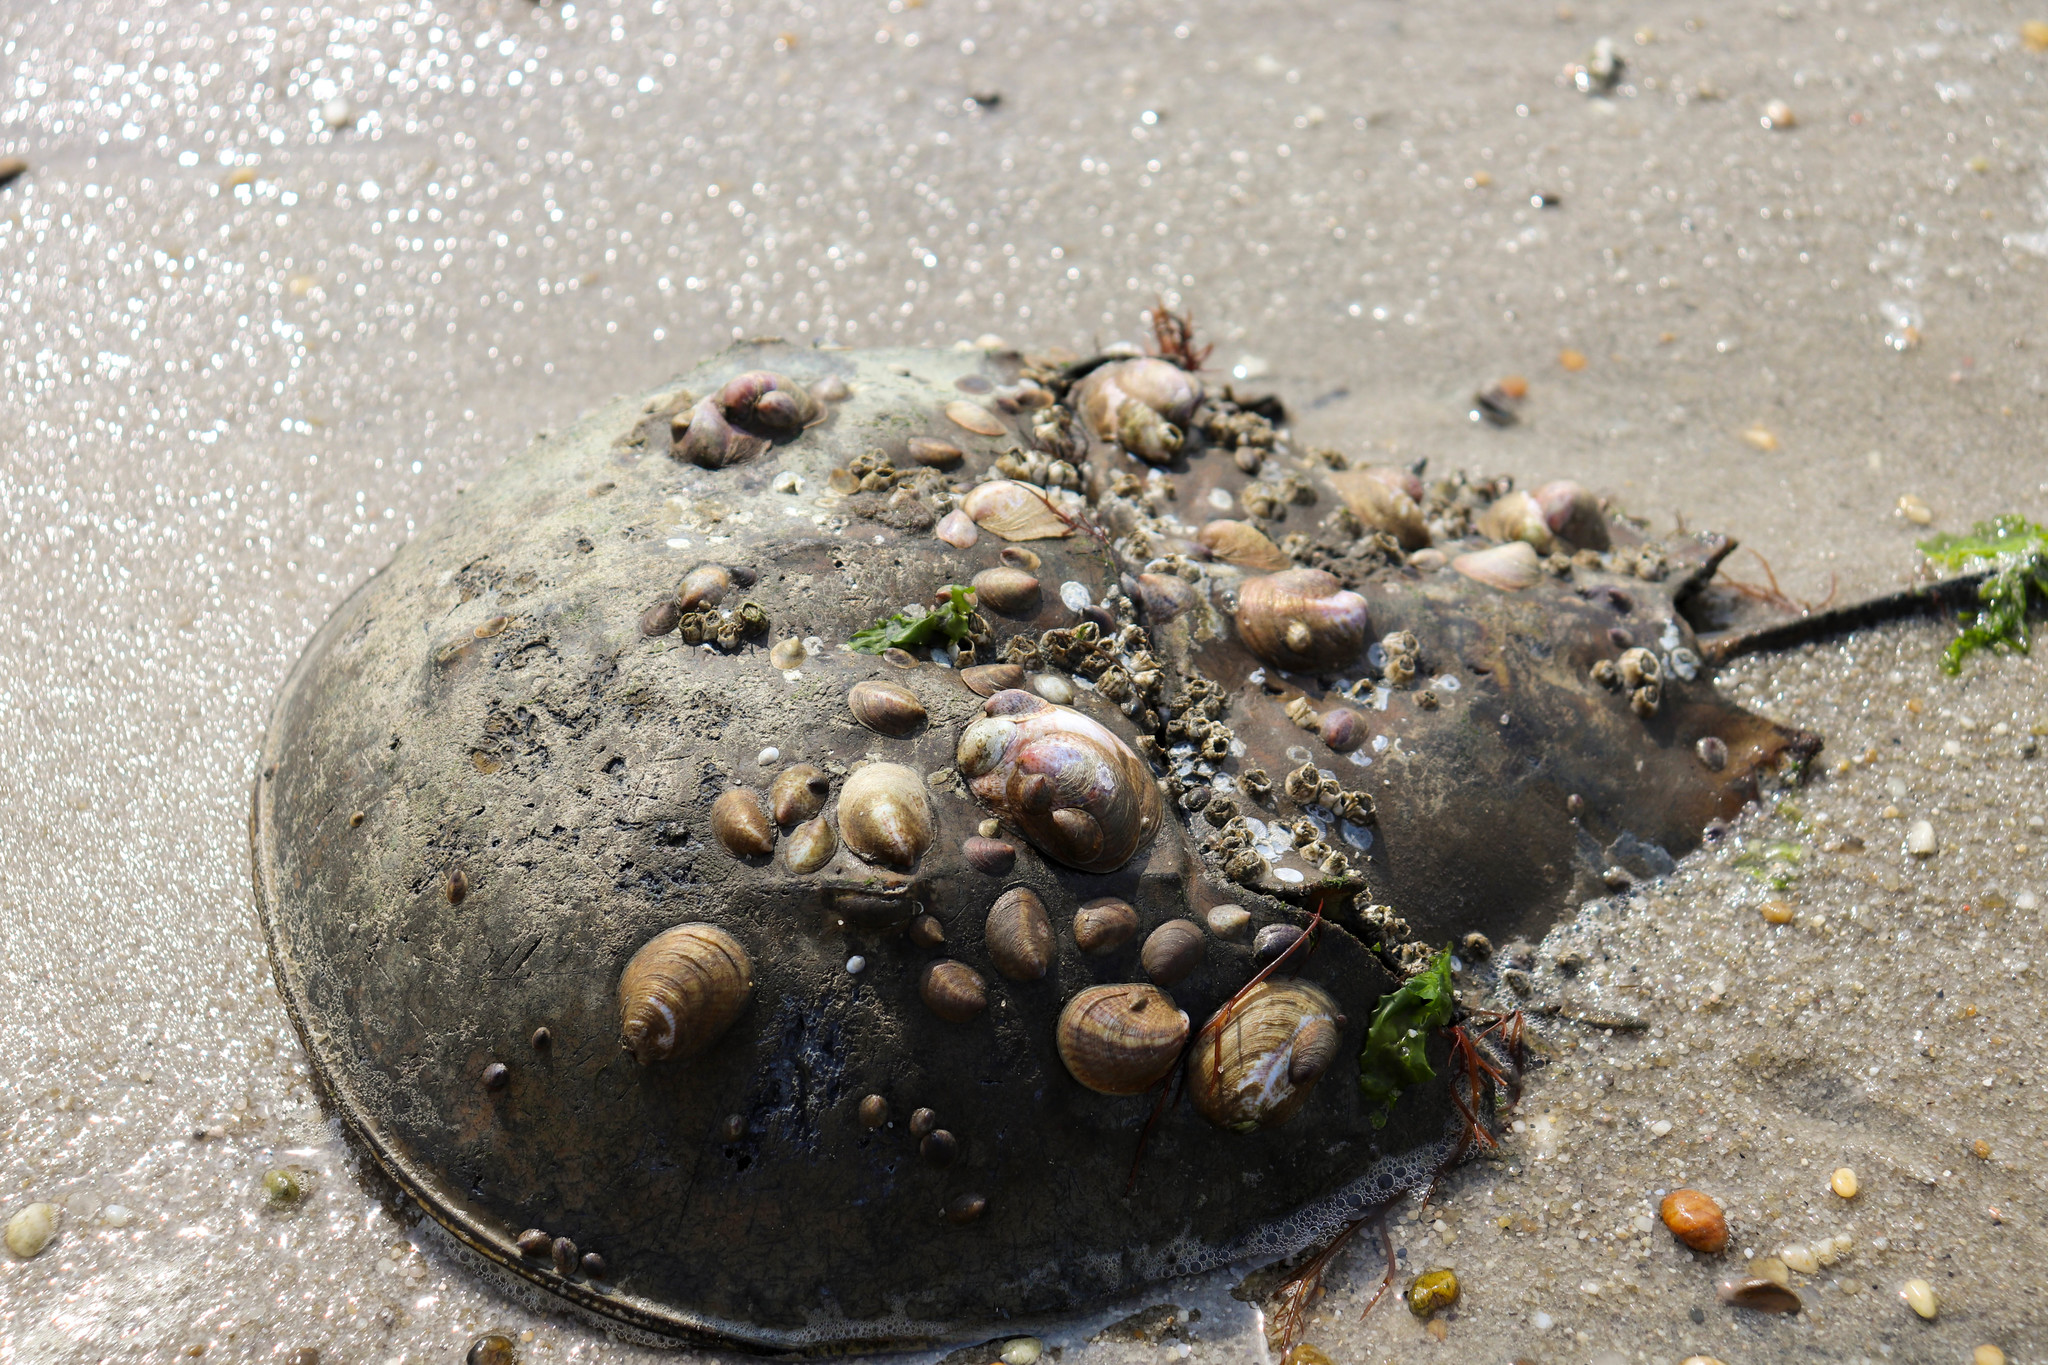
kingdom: Animalia
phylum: Arthropoda
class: Merostomata
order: Xiphosurida
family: Limulidae
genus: Limulus
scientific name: Limulus polyphemus
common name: Horseshoe crab
